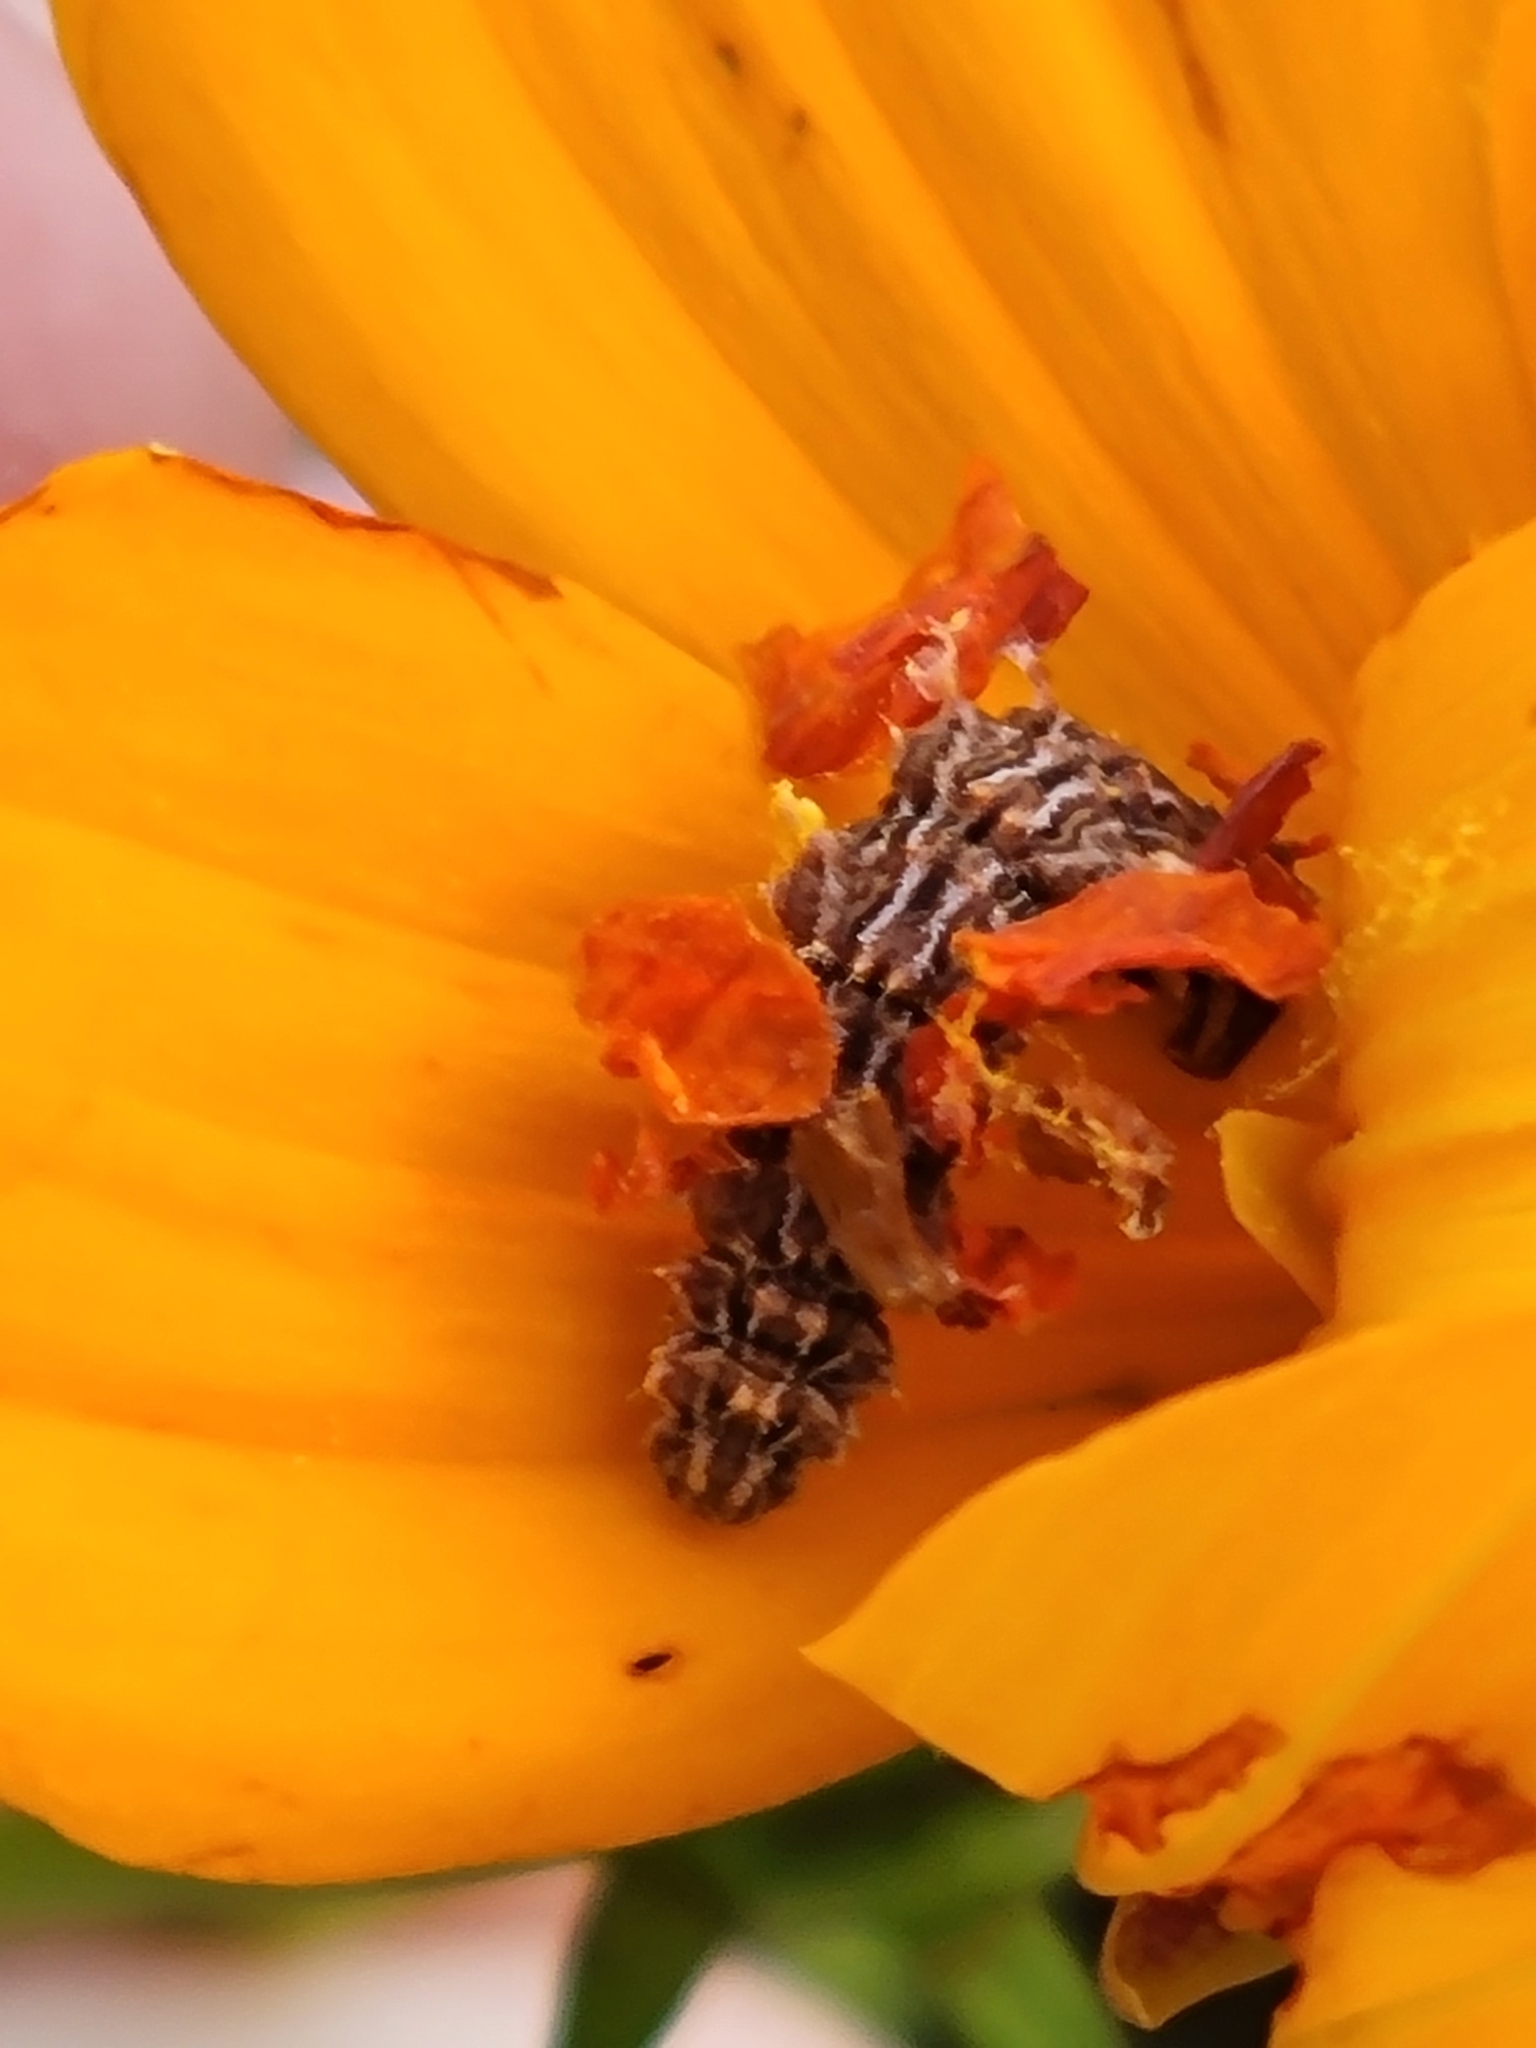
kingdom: Animalia
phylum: Arthropoda
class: Insecta
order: Lepidoptera
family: Geometridae
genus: Synchlora
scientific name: Synchlora aerata
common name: Wavy-lined emerald
